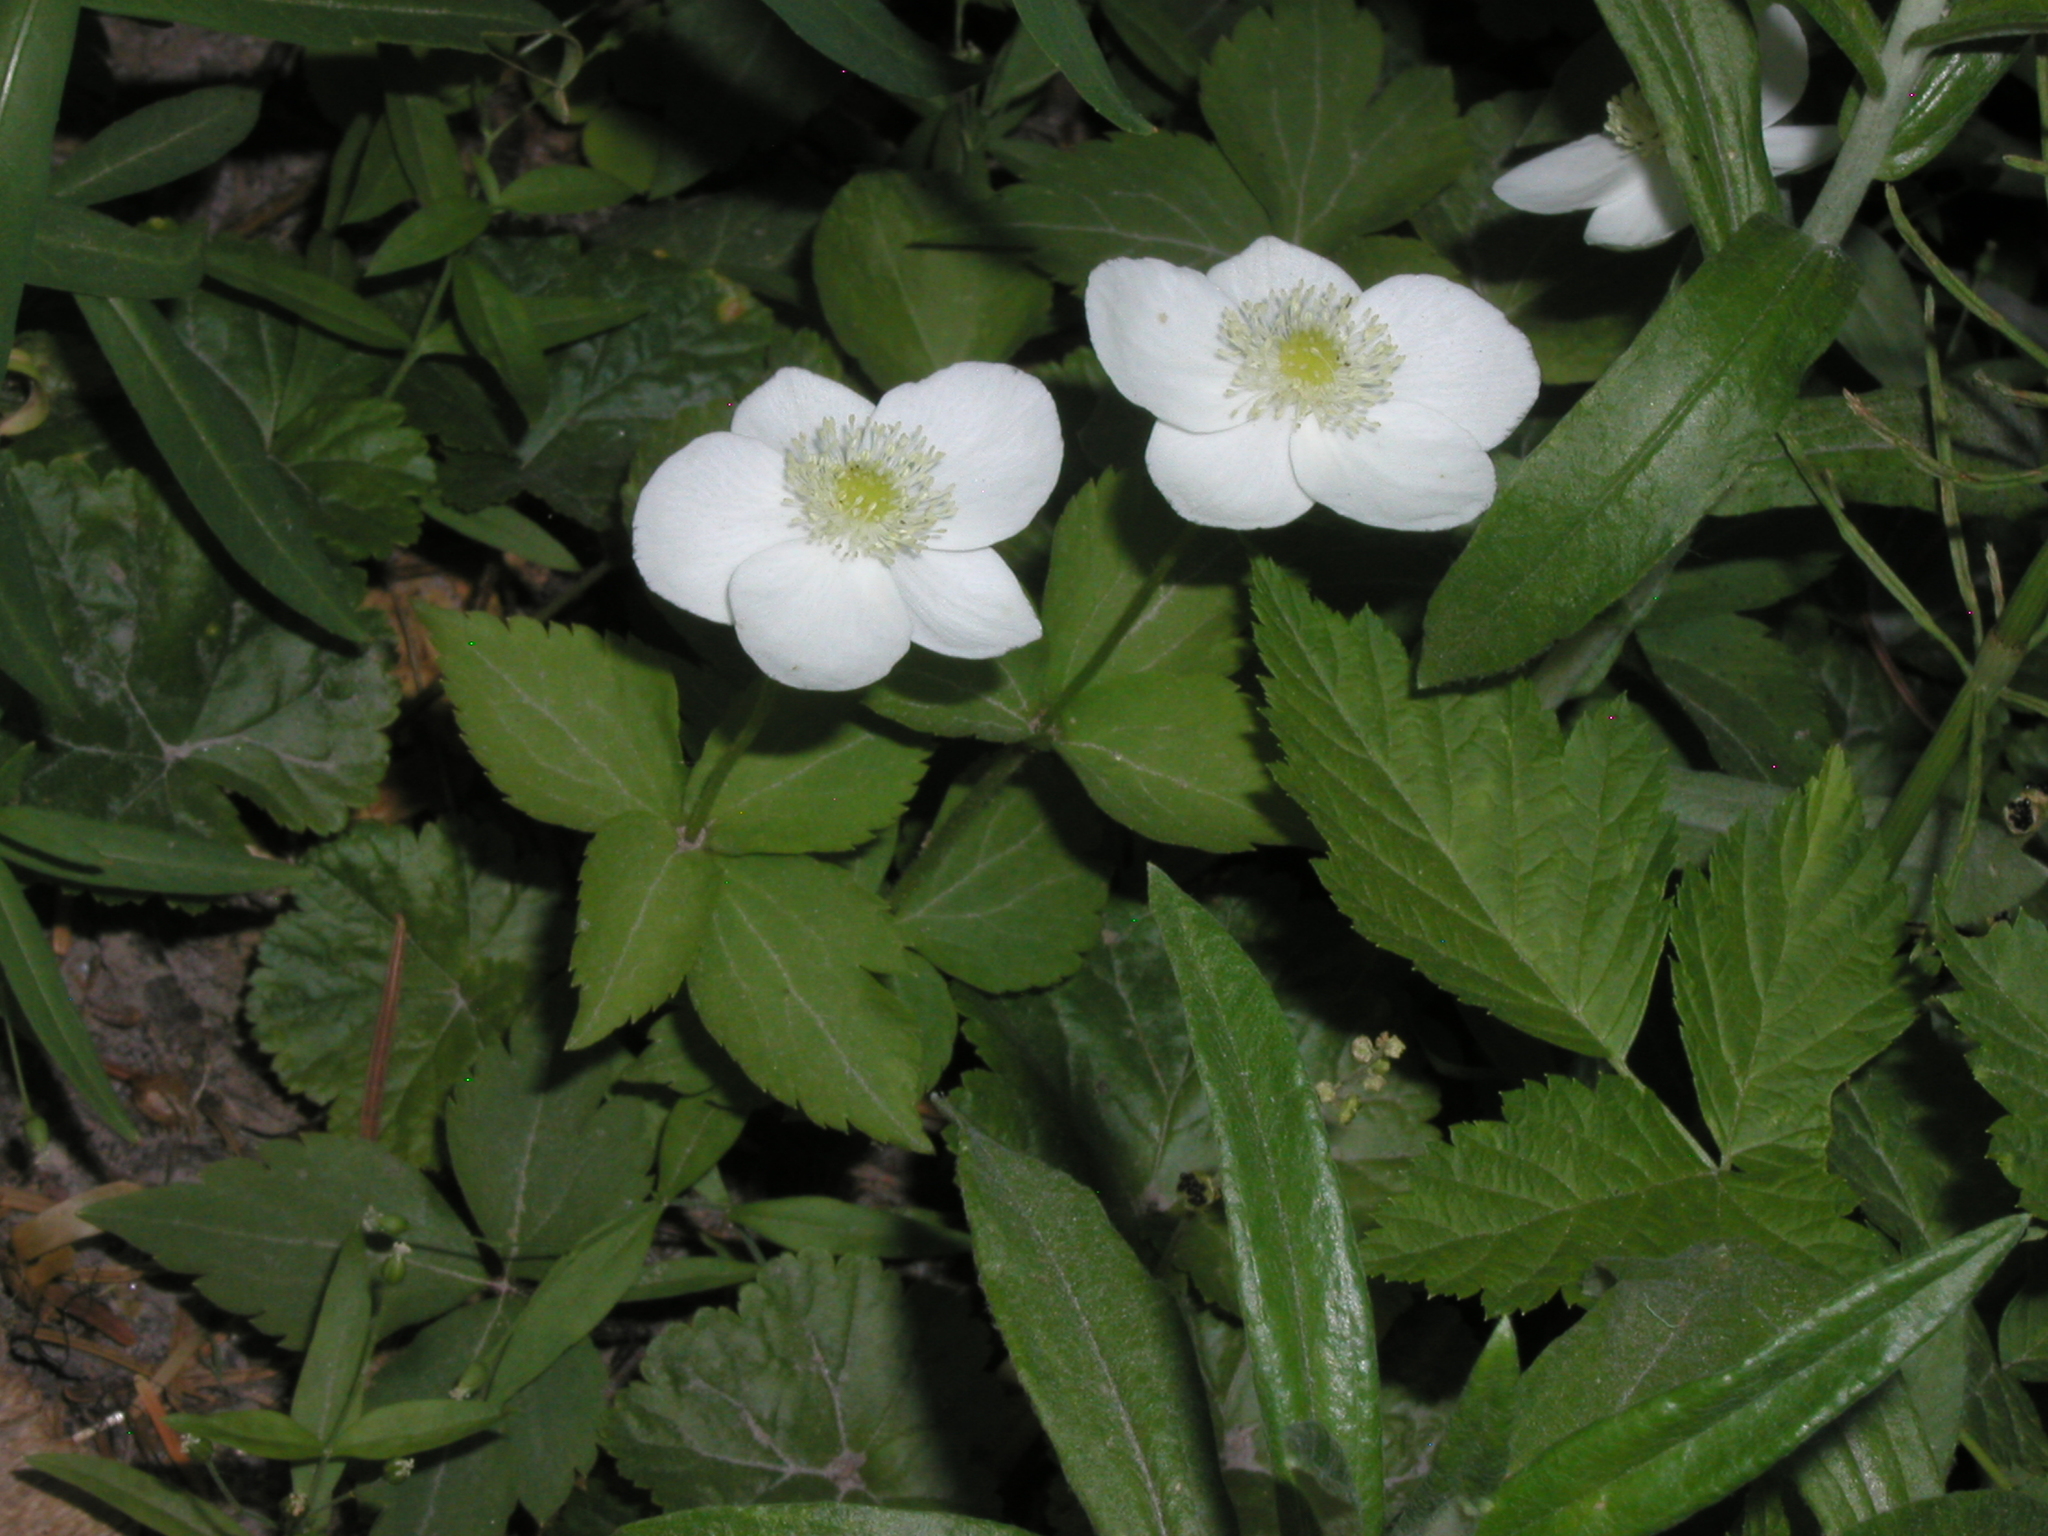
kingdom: Plantae
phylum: Tracheophyta
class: Magnoliopsida
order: Ranunculales
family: Ranunculaceae
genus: Anemonastrum
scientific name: Anemonastrum deltoideum
